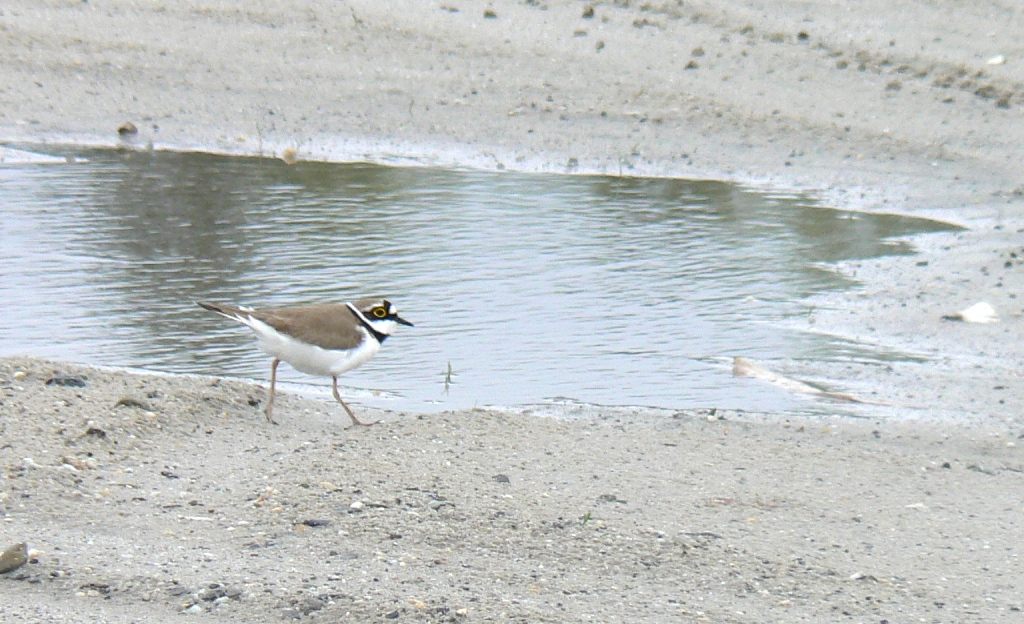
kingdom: Animalia
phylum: Chordata
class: Aves
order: Charadriiformes
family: Charadriidae
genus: Charadrius
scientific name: Charadrius dubius
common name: Little ringed plover
